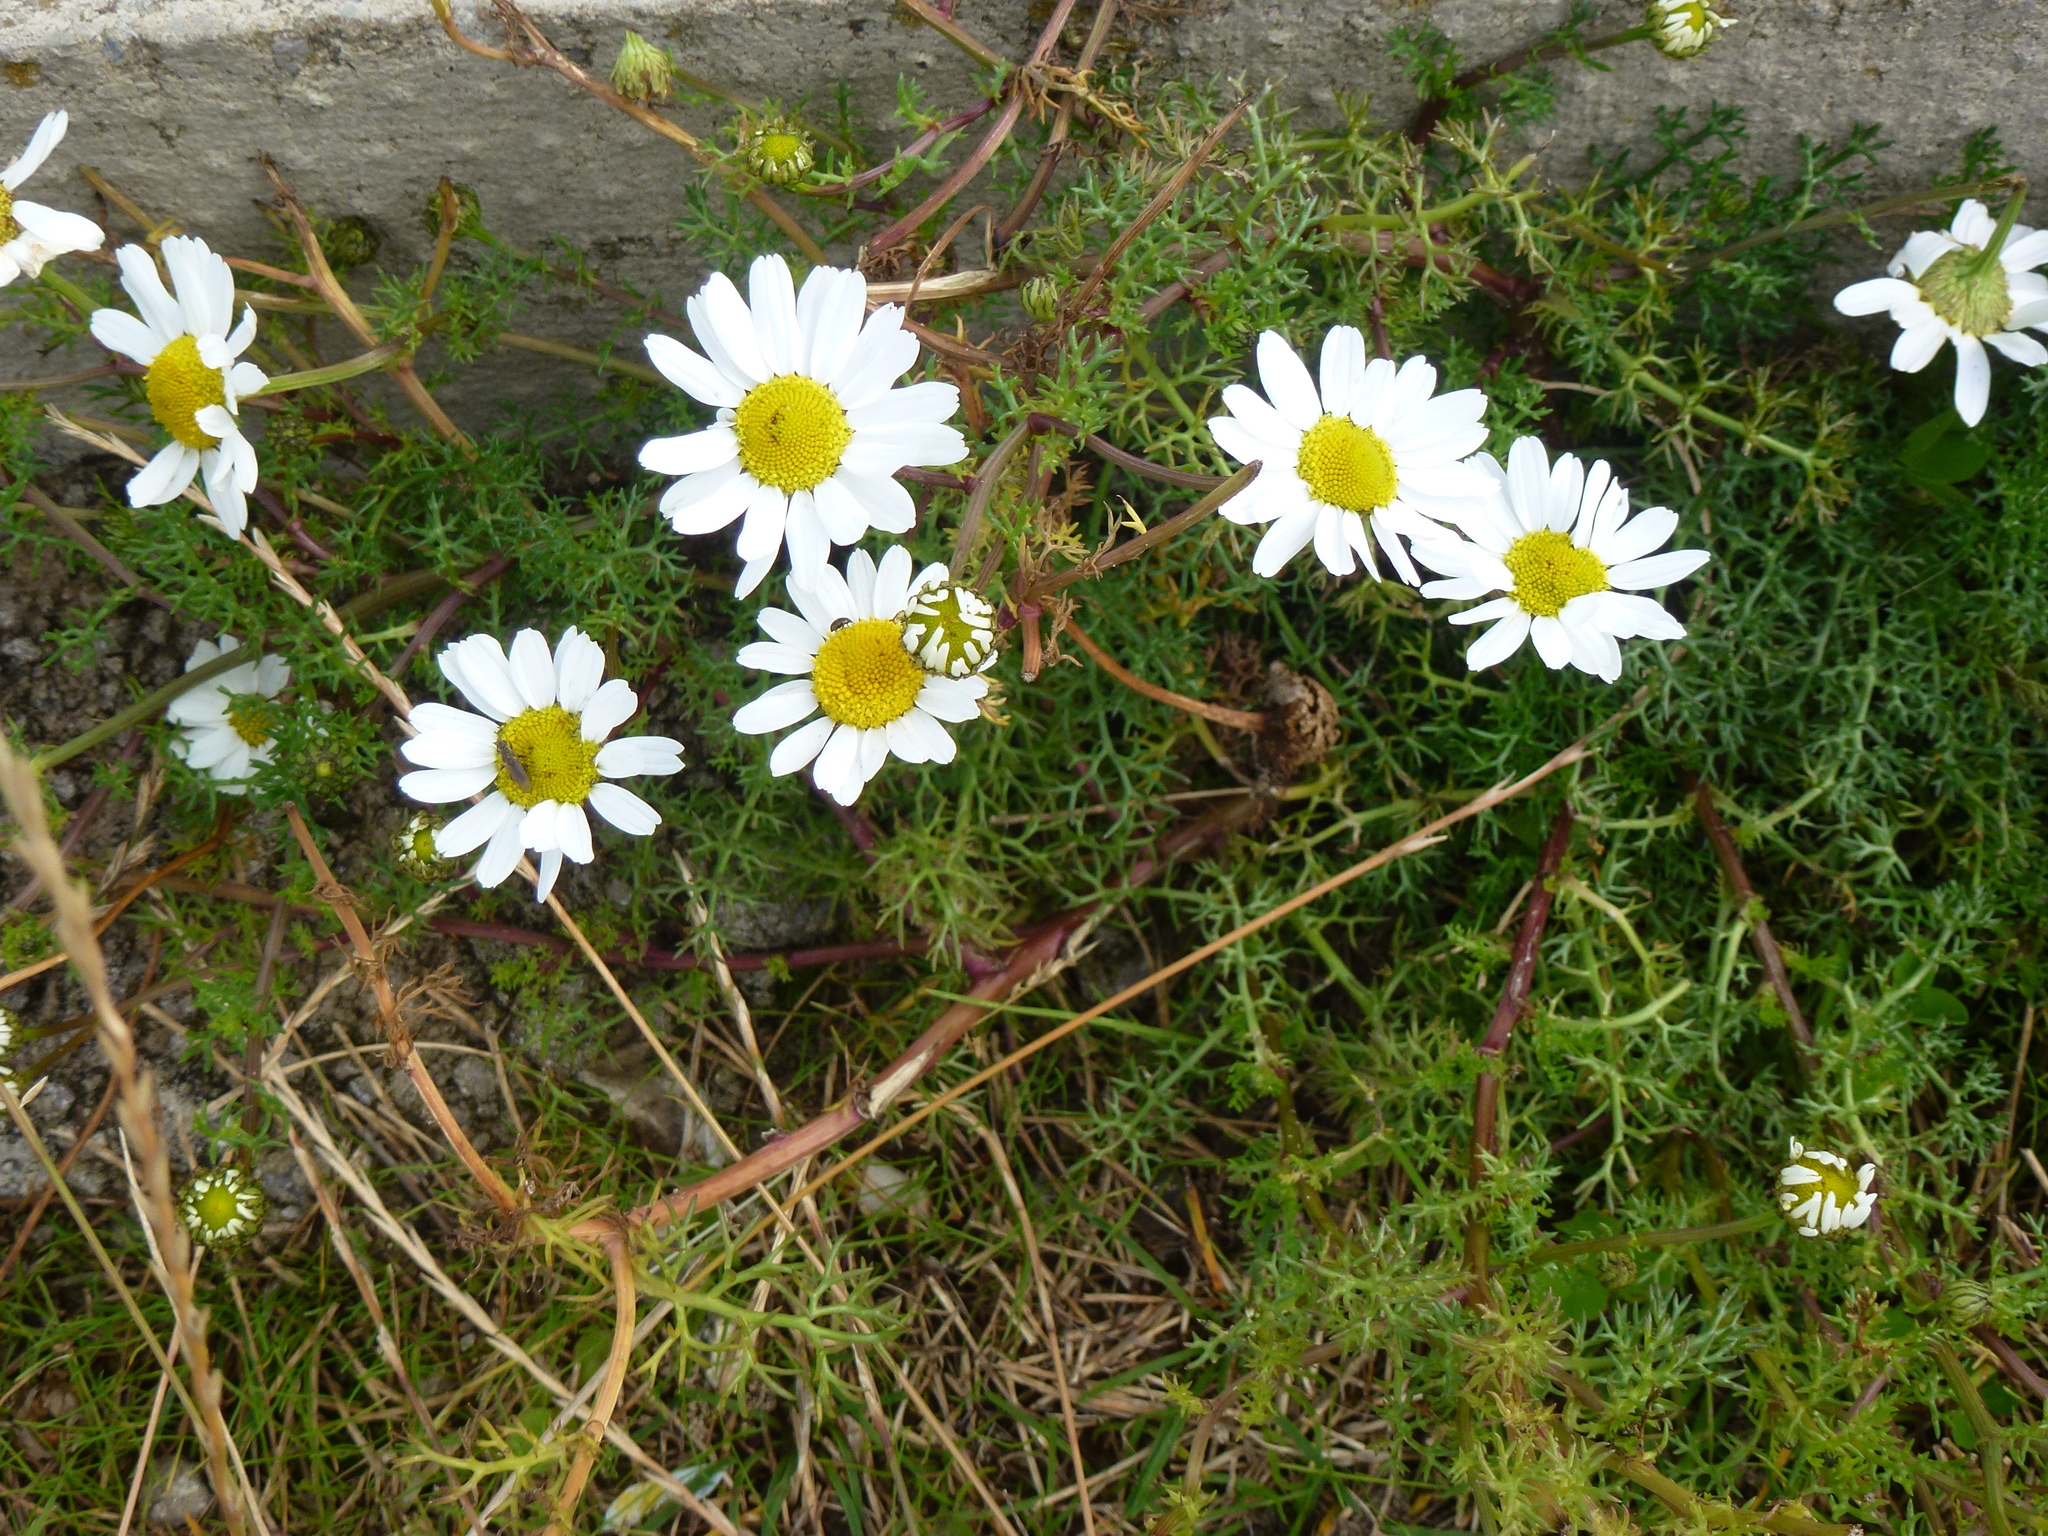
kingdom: Plantae
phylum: Tracheophyta
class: Magnoliopsida
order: Asterales
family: Asteraceae
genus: Tripleurospermum
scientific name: Tripleurospermum maritimum
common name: Sea mayweed
